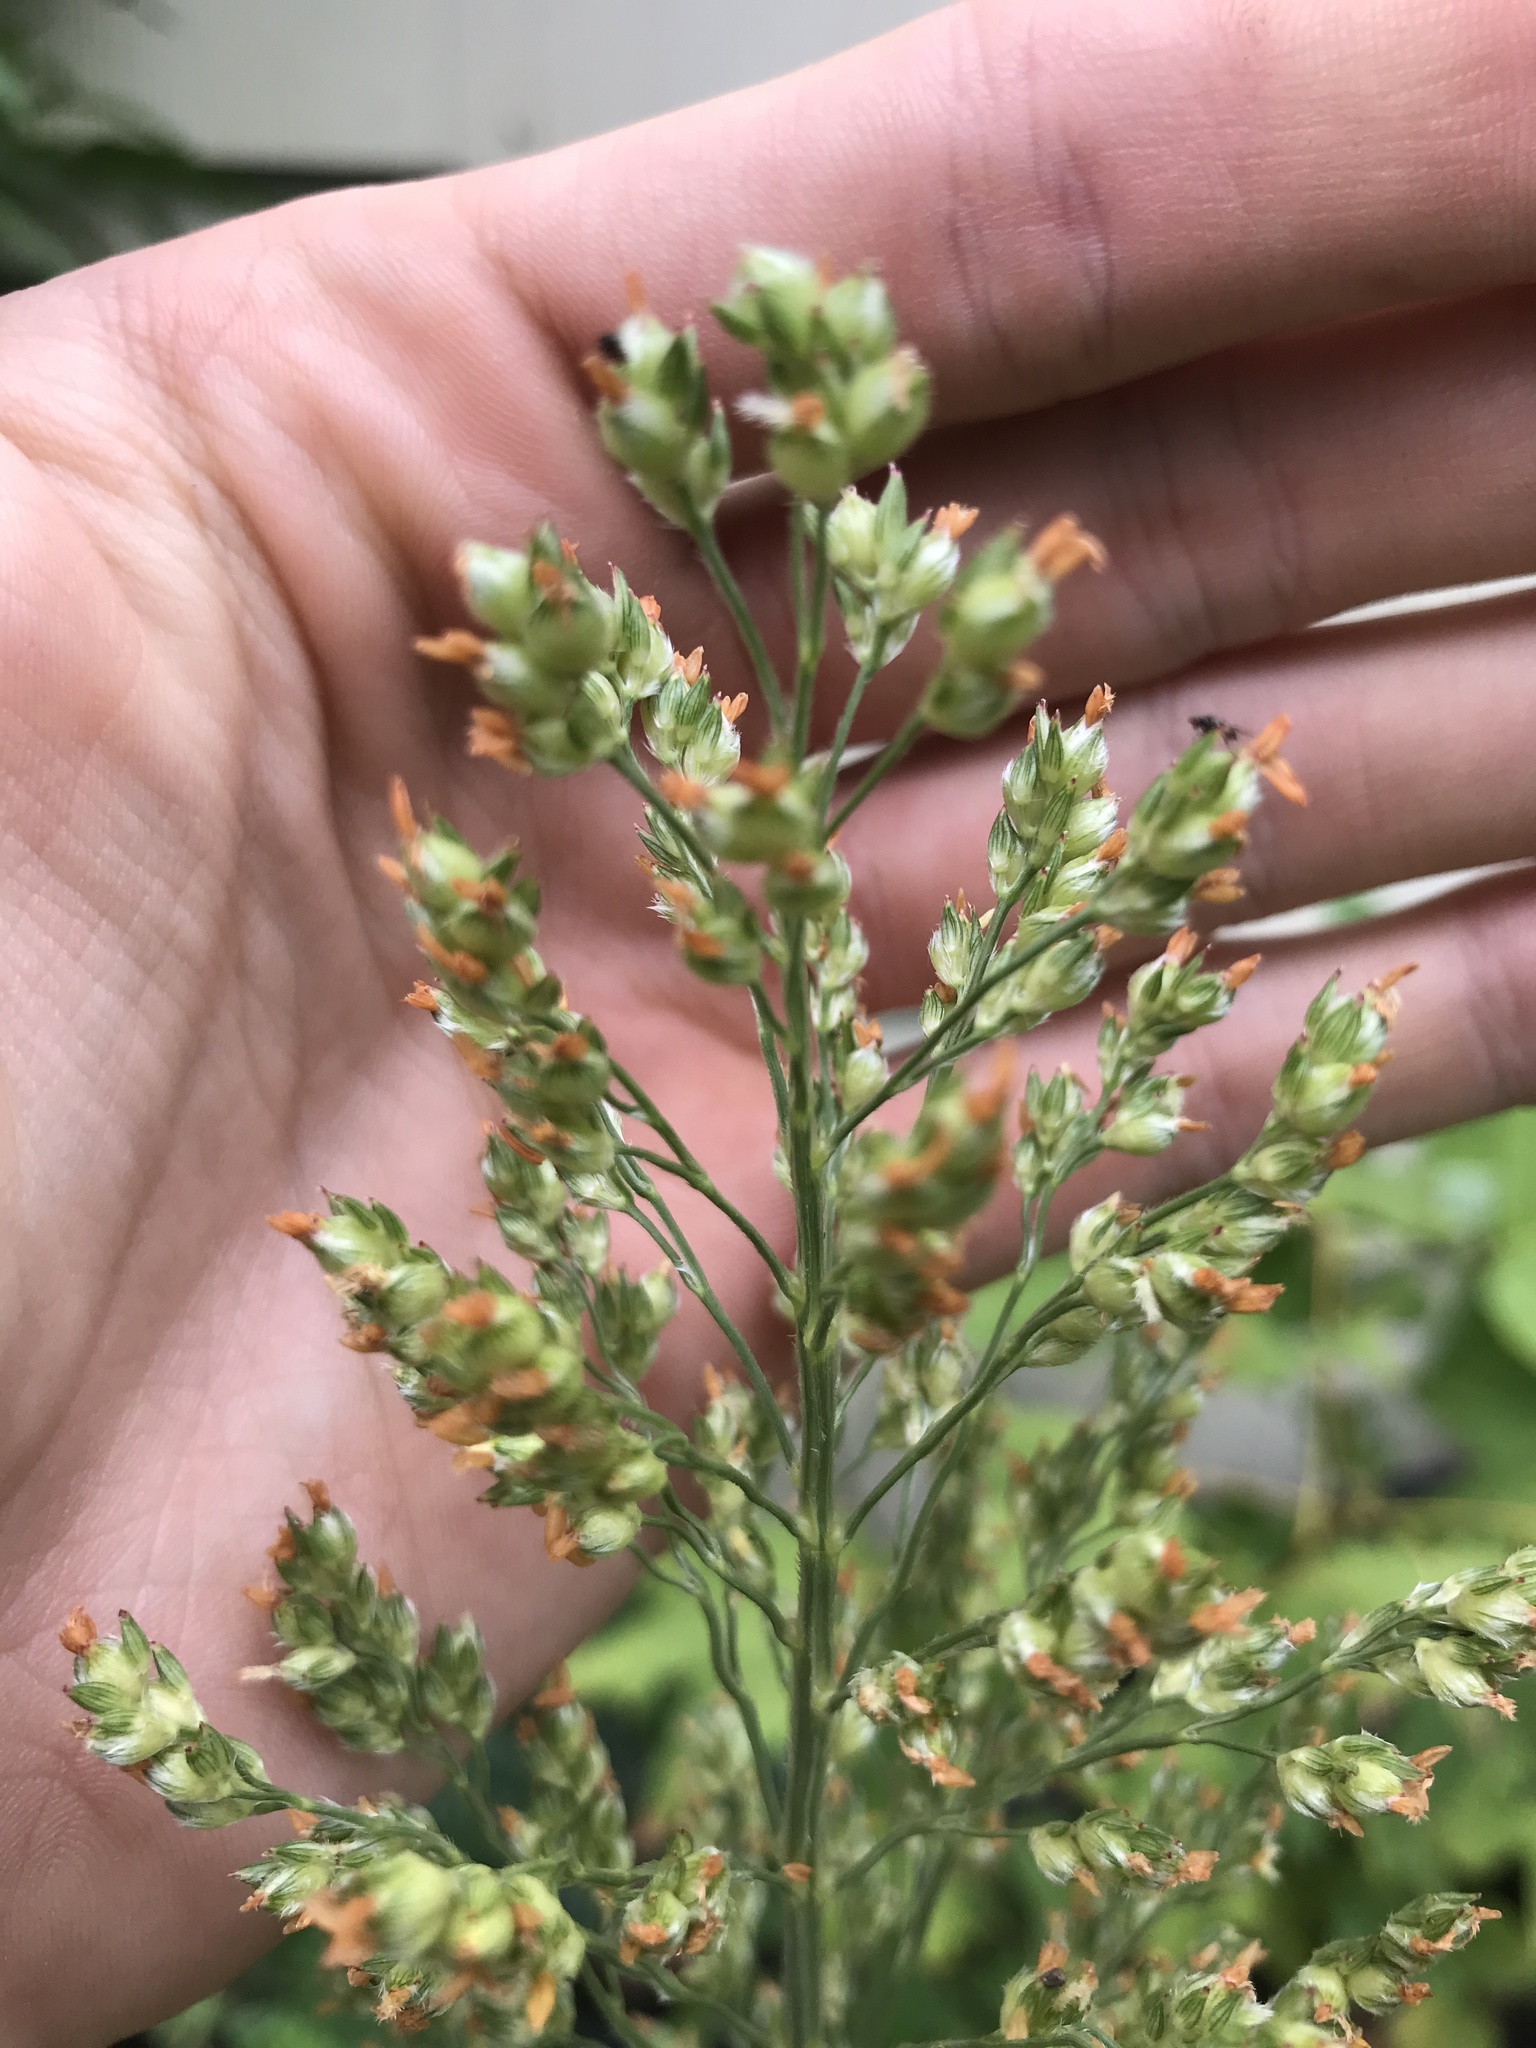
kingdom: Plantae
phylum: Tracheophyta
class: Liliopsida
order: Poales
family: Poaceae
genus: Sorghum
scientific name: Sorghum bicolor
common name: Sorghum
